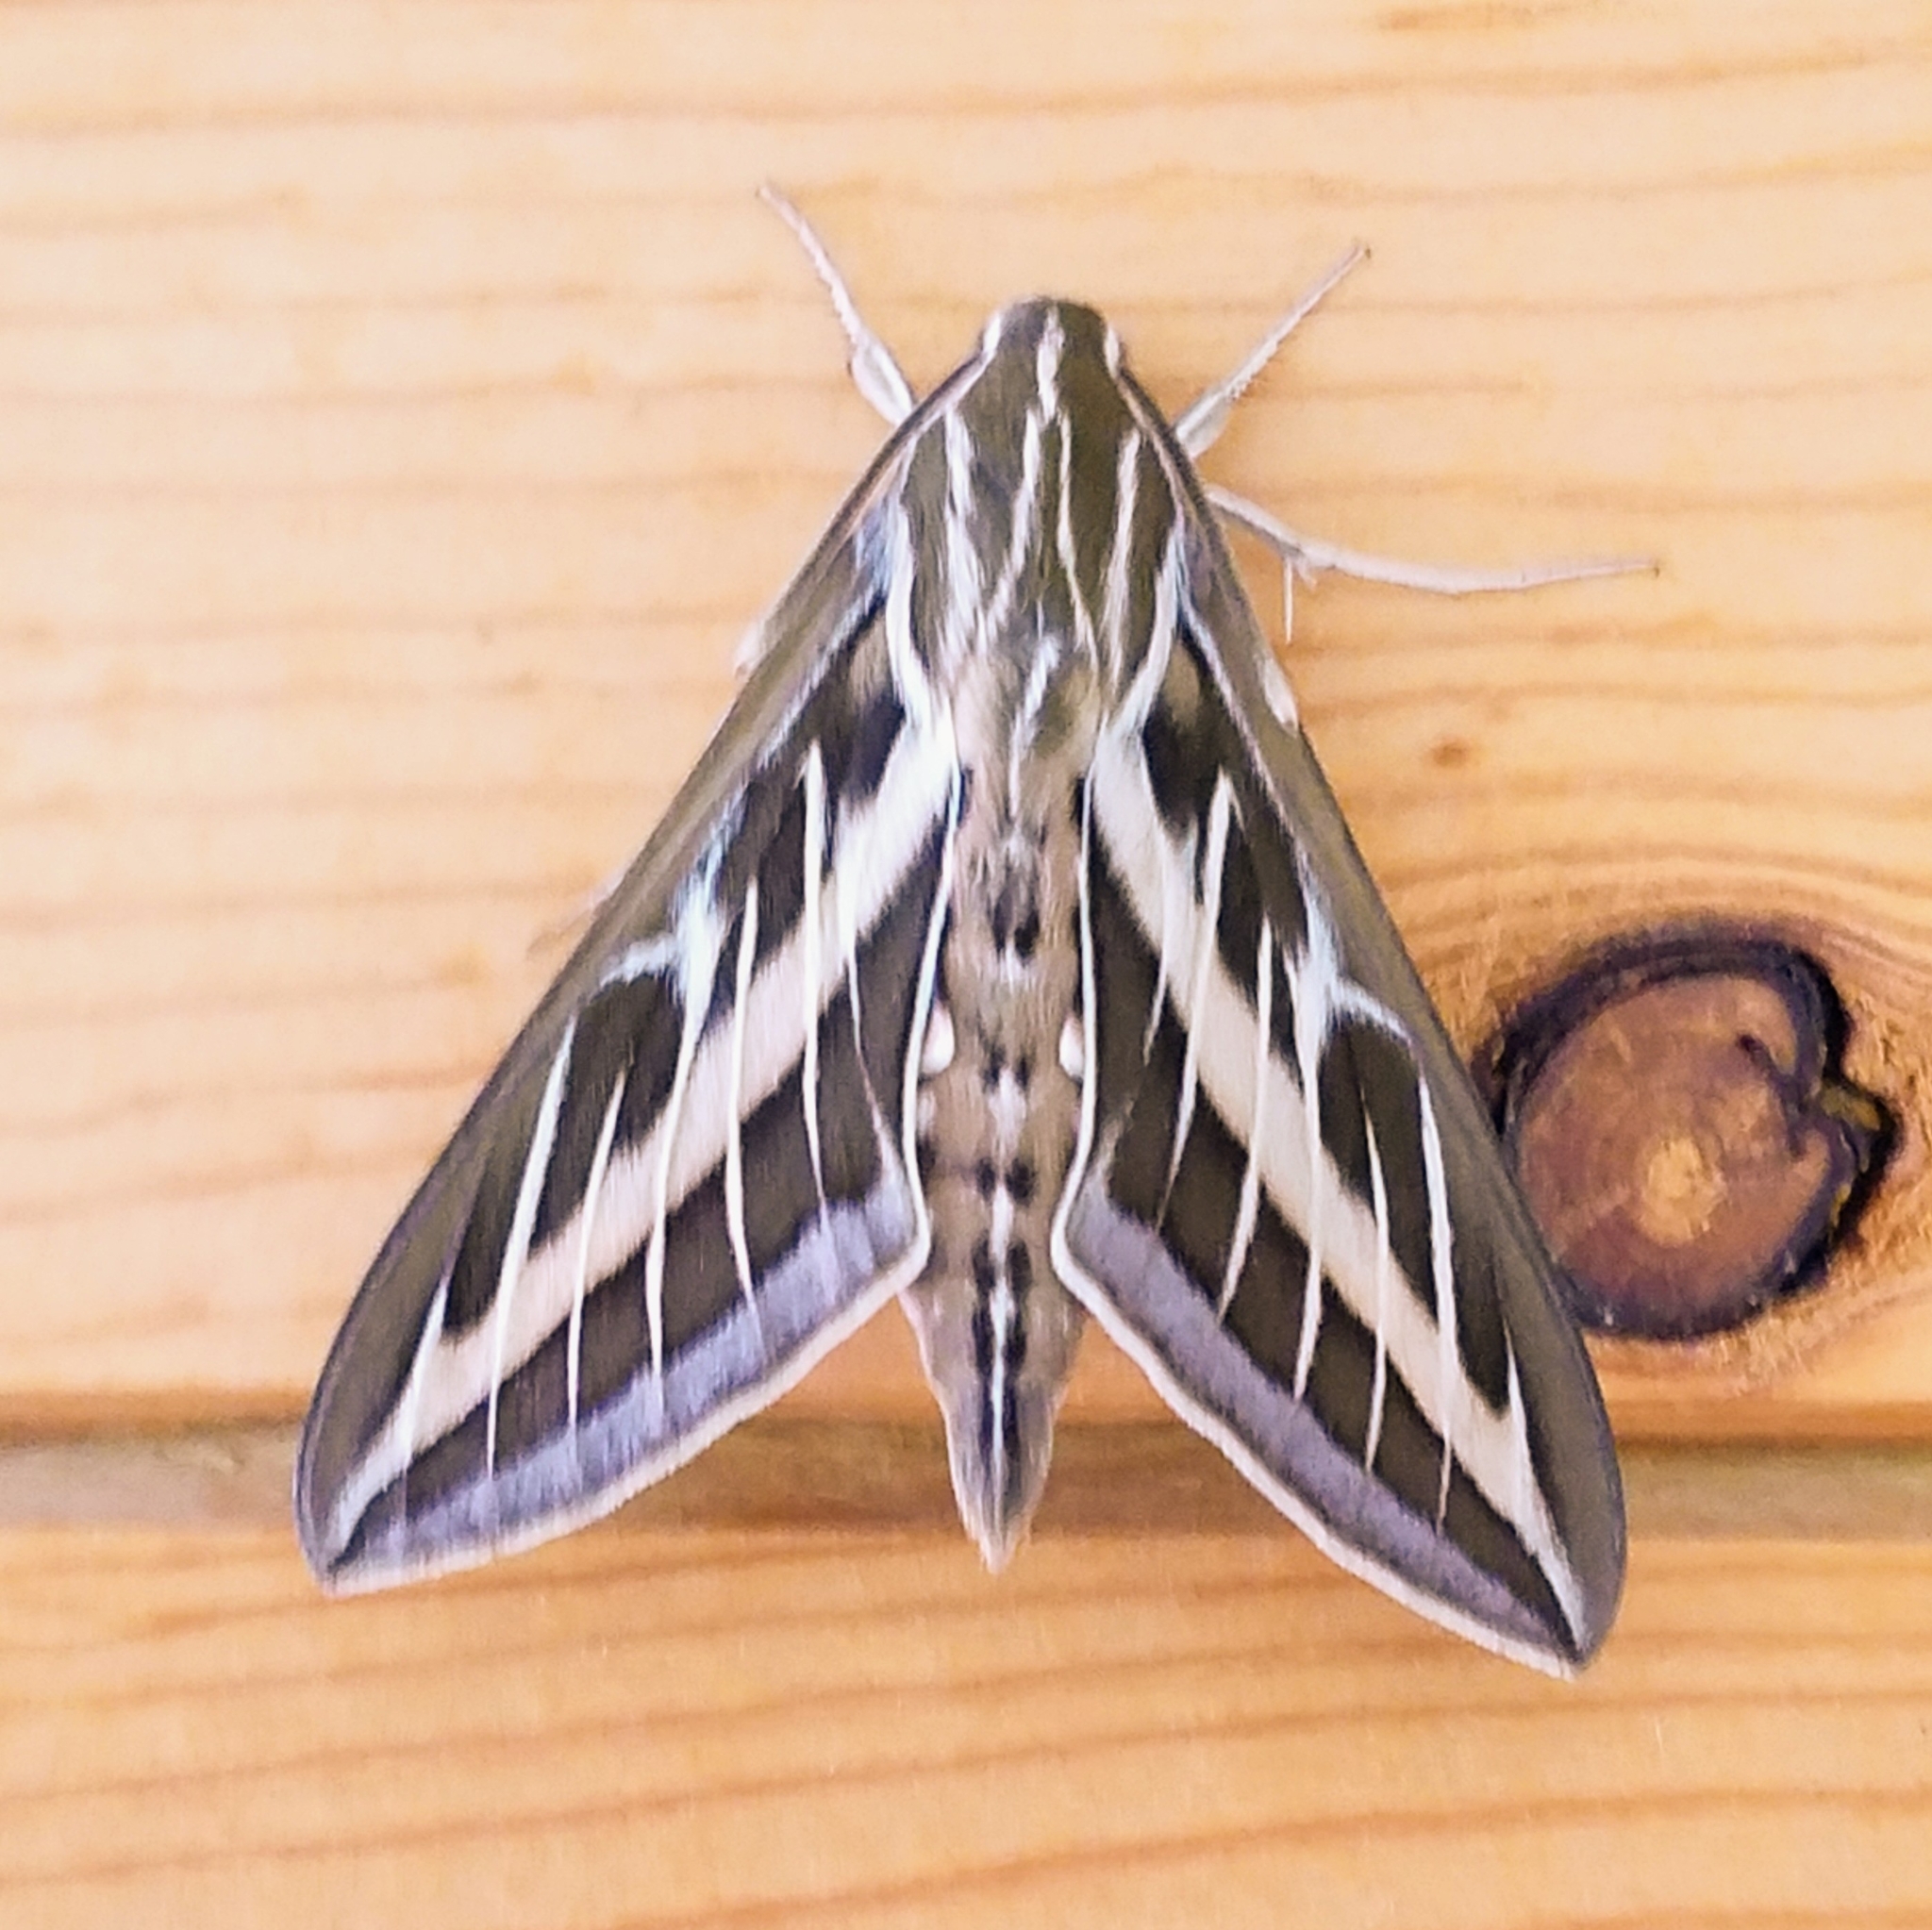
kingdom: Animalia
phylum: Arthropoda
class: Insecta
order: Lepidoptera
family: Sphingidae
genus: Hyles
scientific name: Hyles lineata
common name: White-lined sphinx
